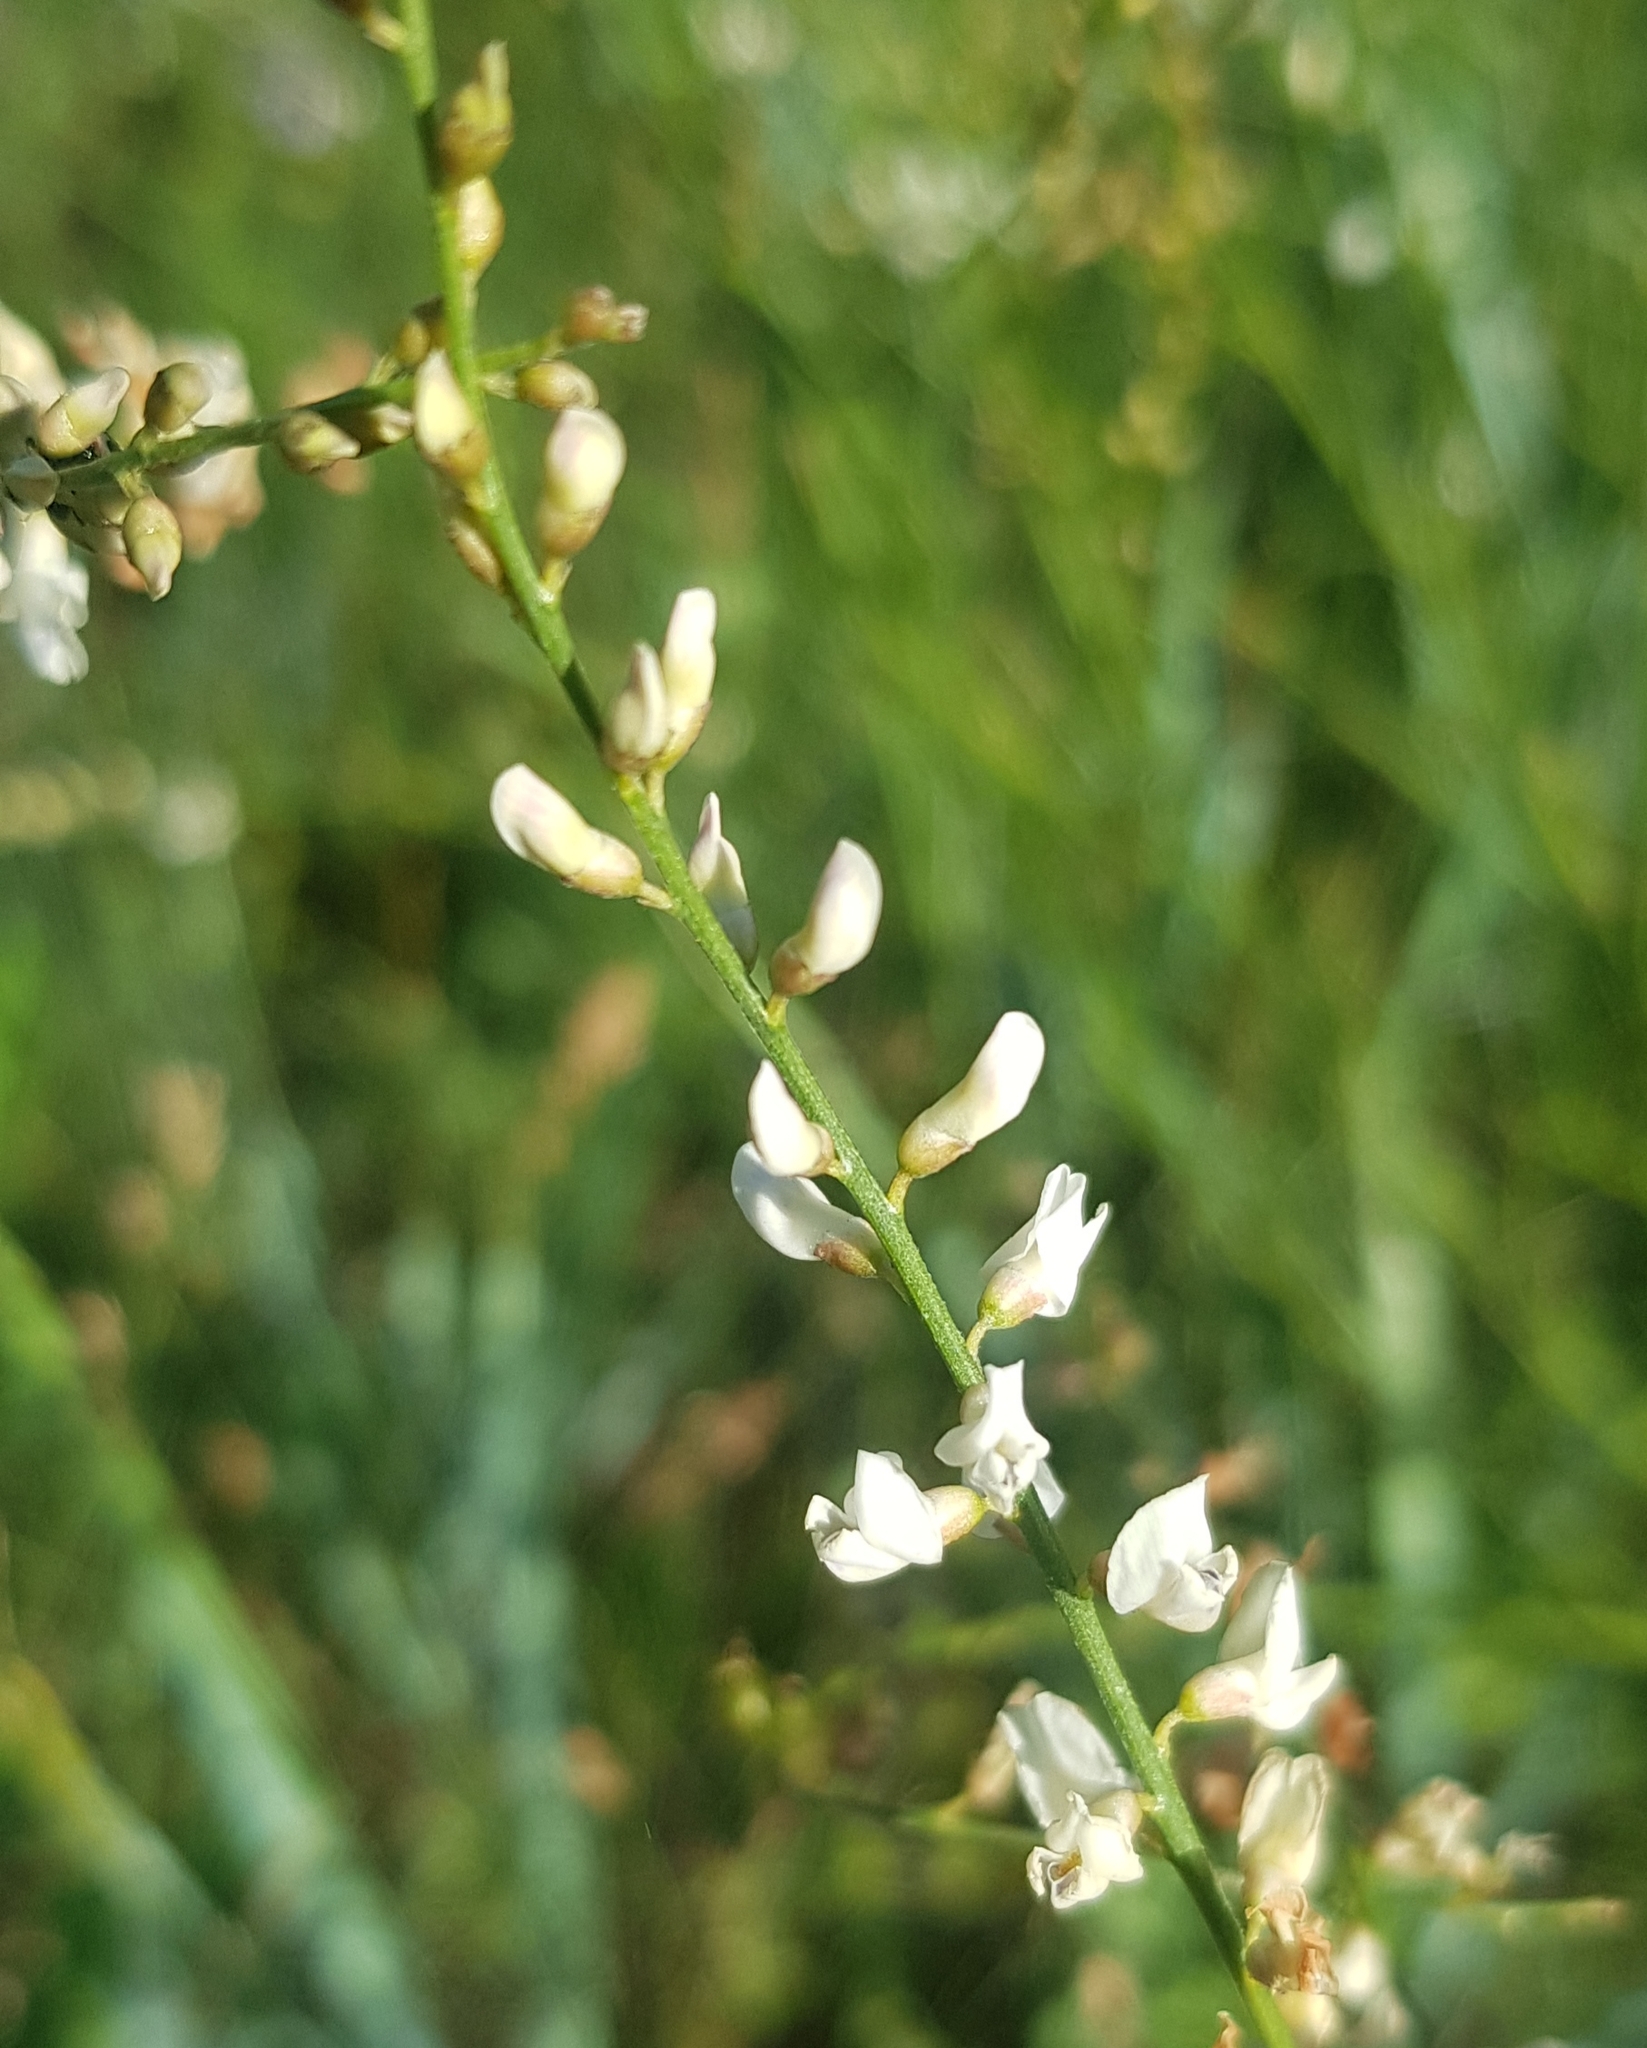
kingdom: Plantae
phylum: Tracheophyta
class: Magnoliopsida
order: Fabales
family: Fabaceae
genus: Astragalus
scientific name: Astragalus melilotoides
